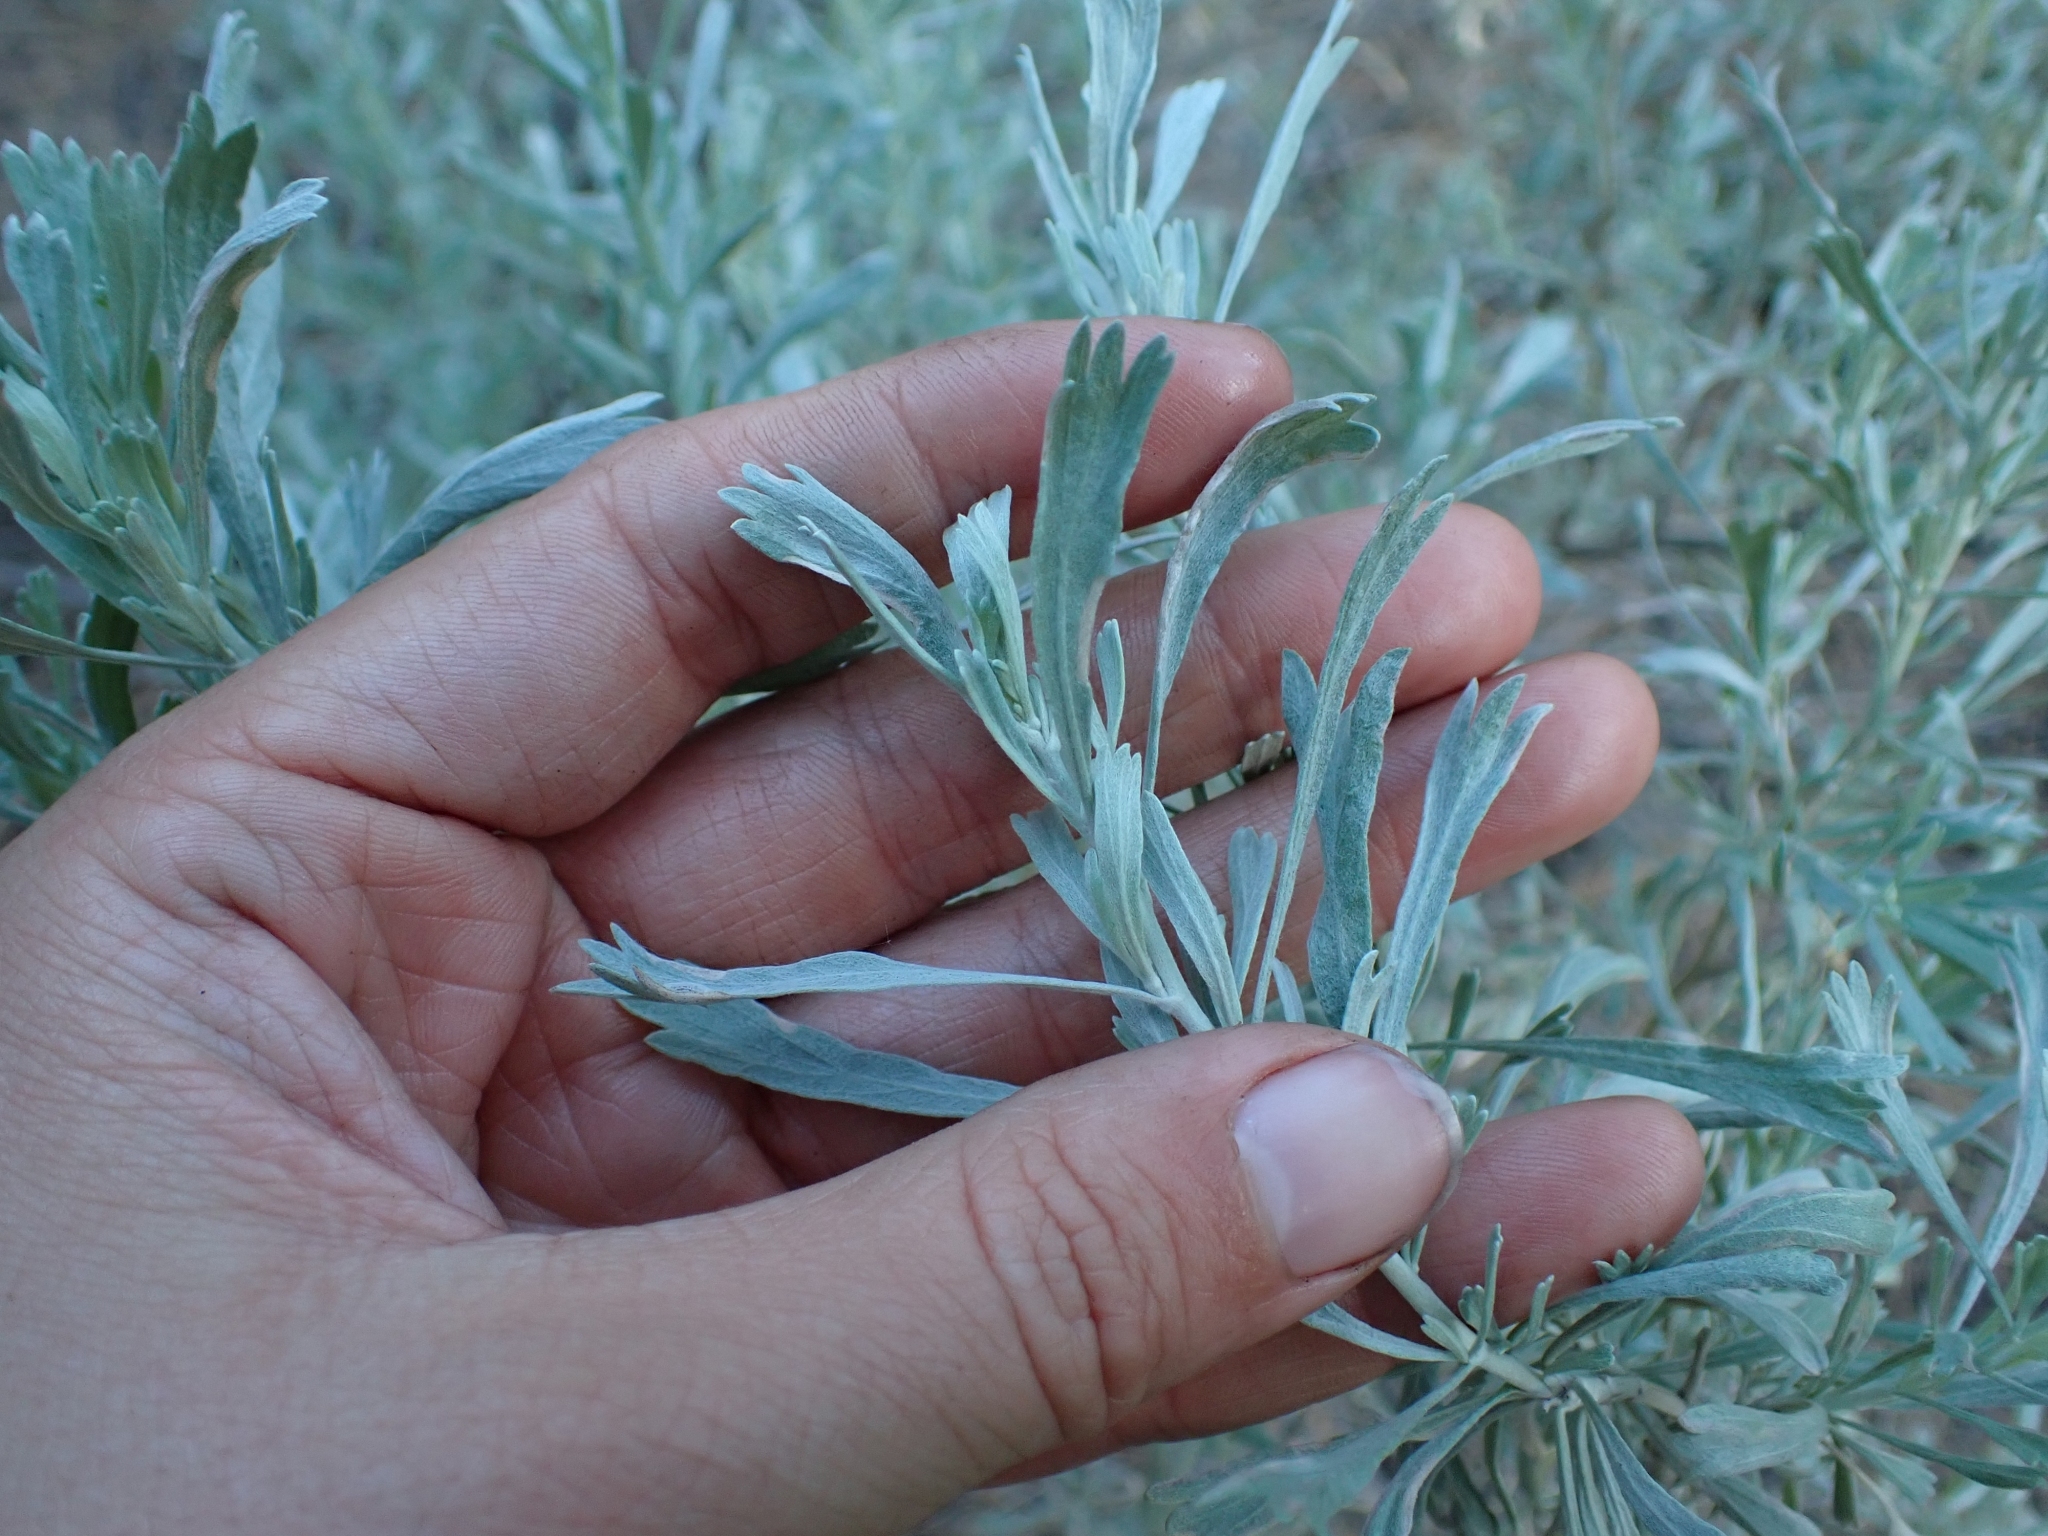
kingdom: Plantae
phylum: Tracheophyta
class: Magnoliopsida
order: Asterales
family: Asteraceae
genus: Artemisia
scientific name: Artemisia tridentata
